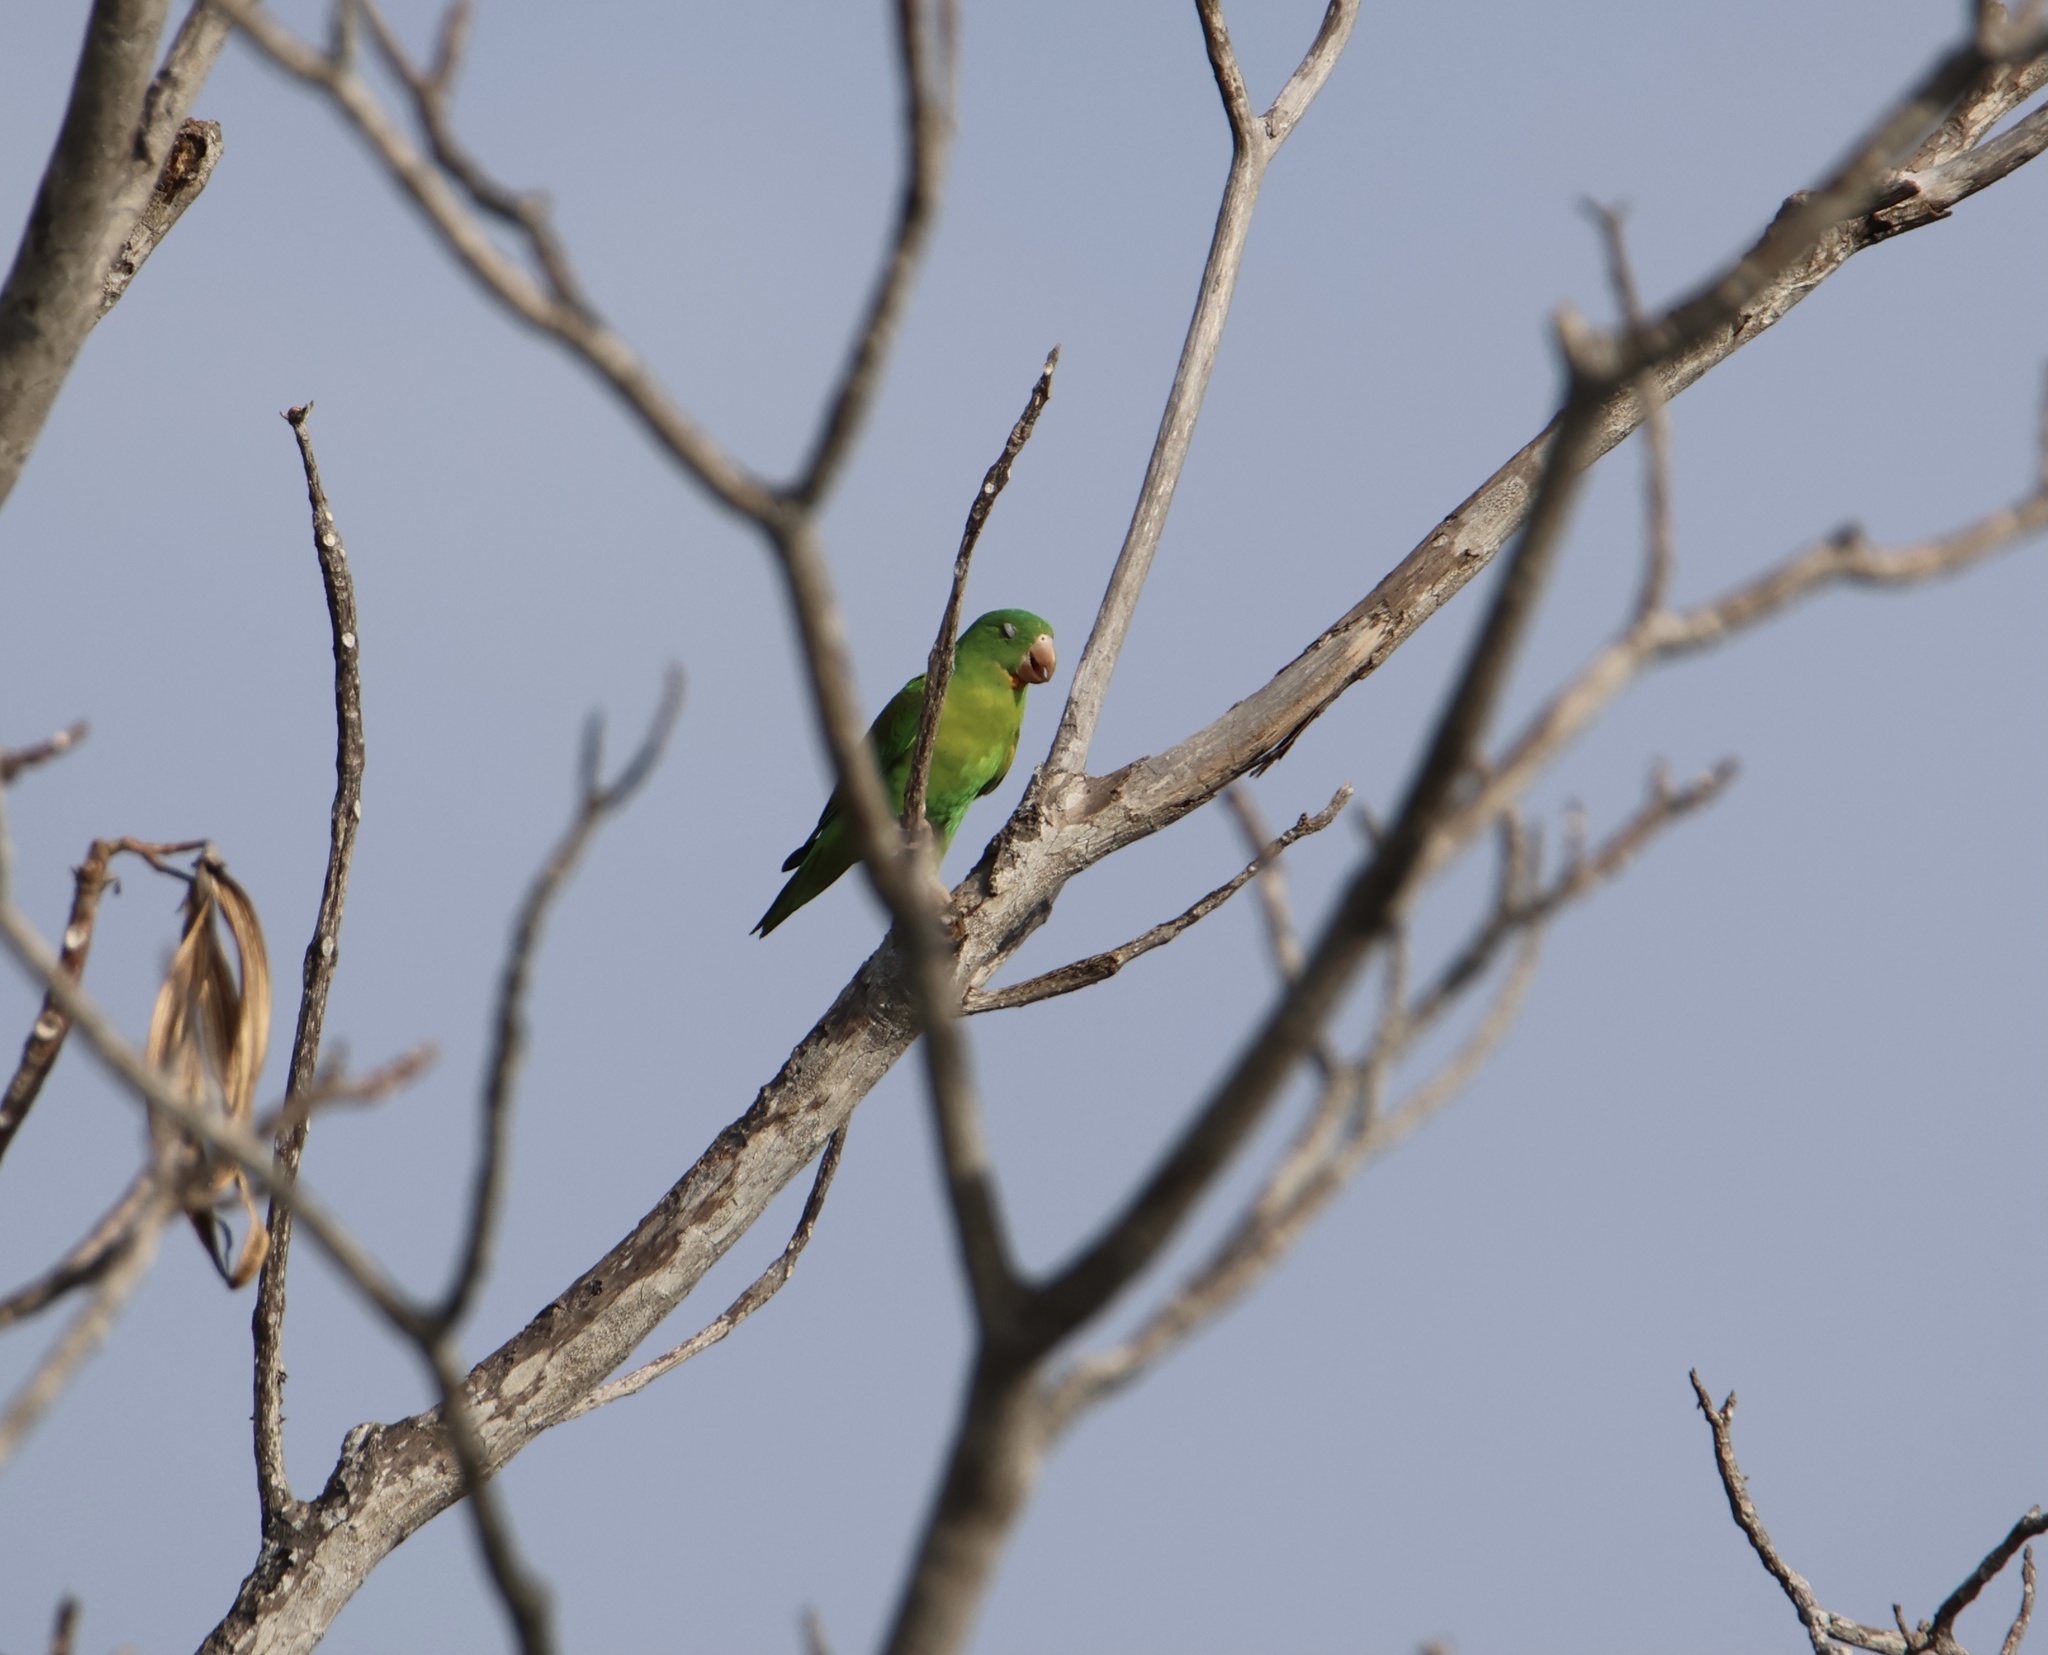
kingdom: Animalia
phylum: Chordata
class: Aves
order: Psittaciformes
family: Psittacidae
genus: Brotogeris
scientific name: Brotogeris jugularis
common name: Orange-chinned parakeet
